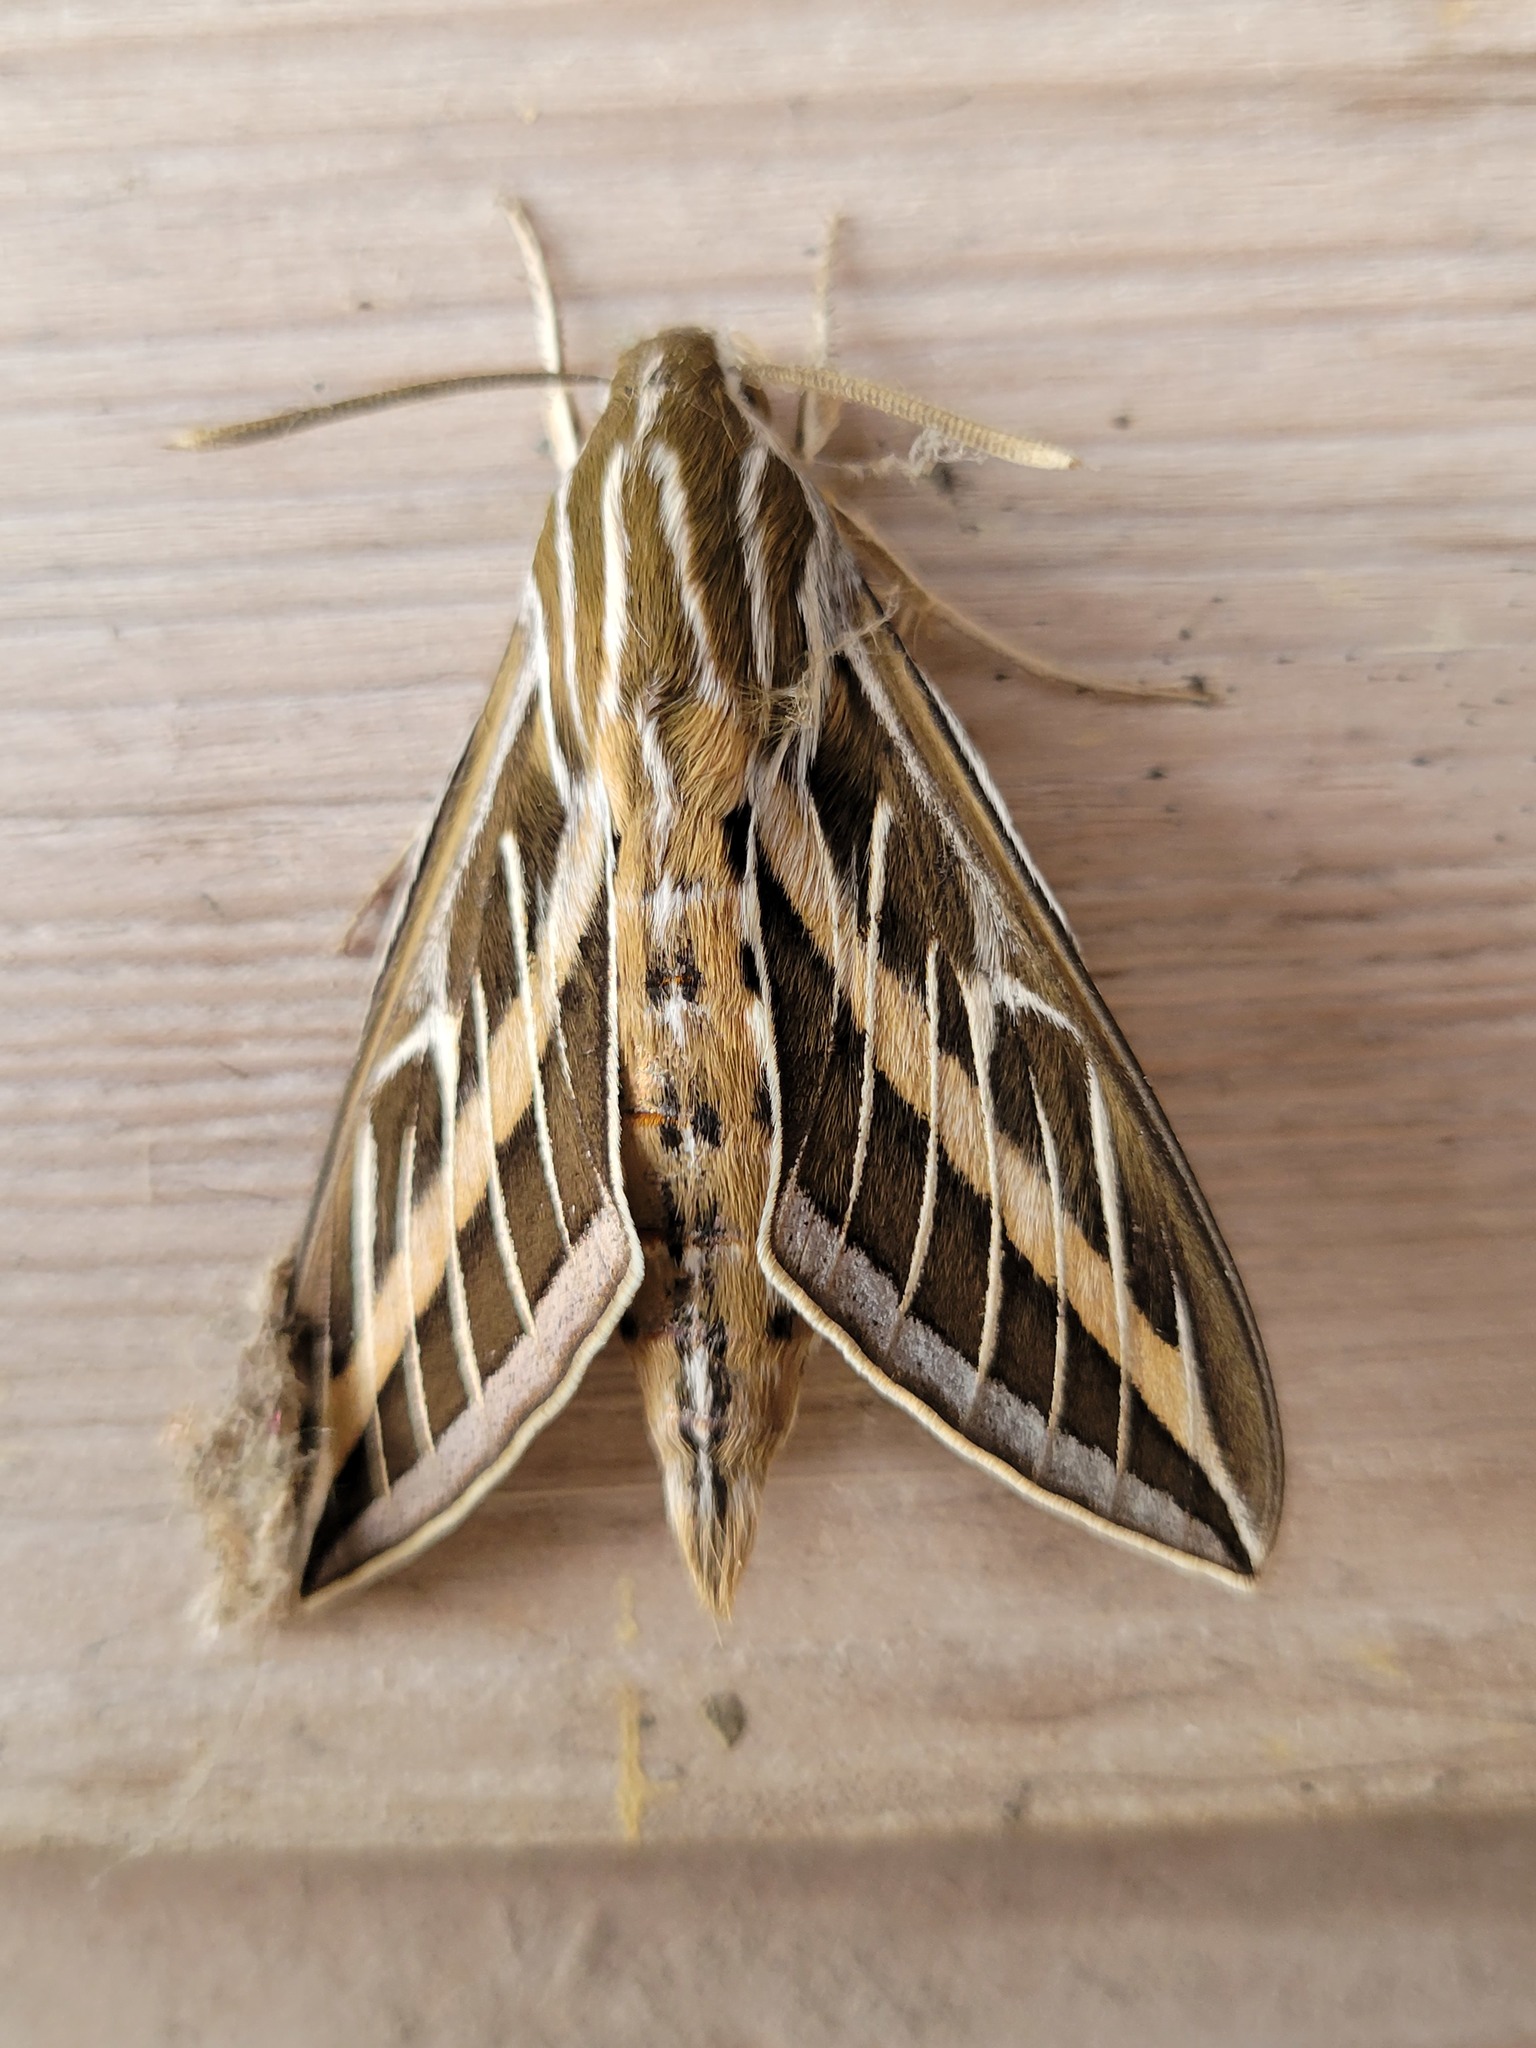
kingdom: Animalia
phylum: Arthropoda
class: Insecta
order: Lepidoptera
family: Sphingidae
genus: Hyles
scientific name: Hyles lineata
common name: White-lined sphinx
